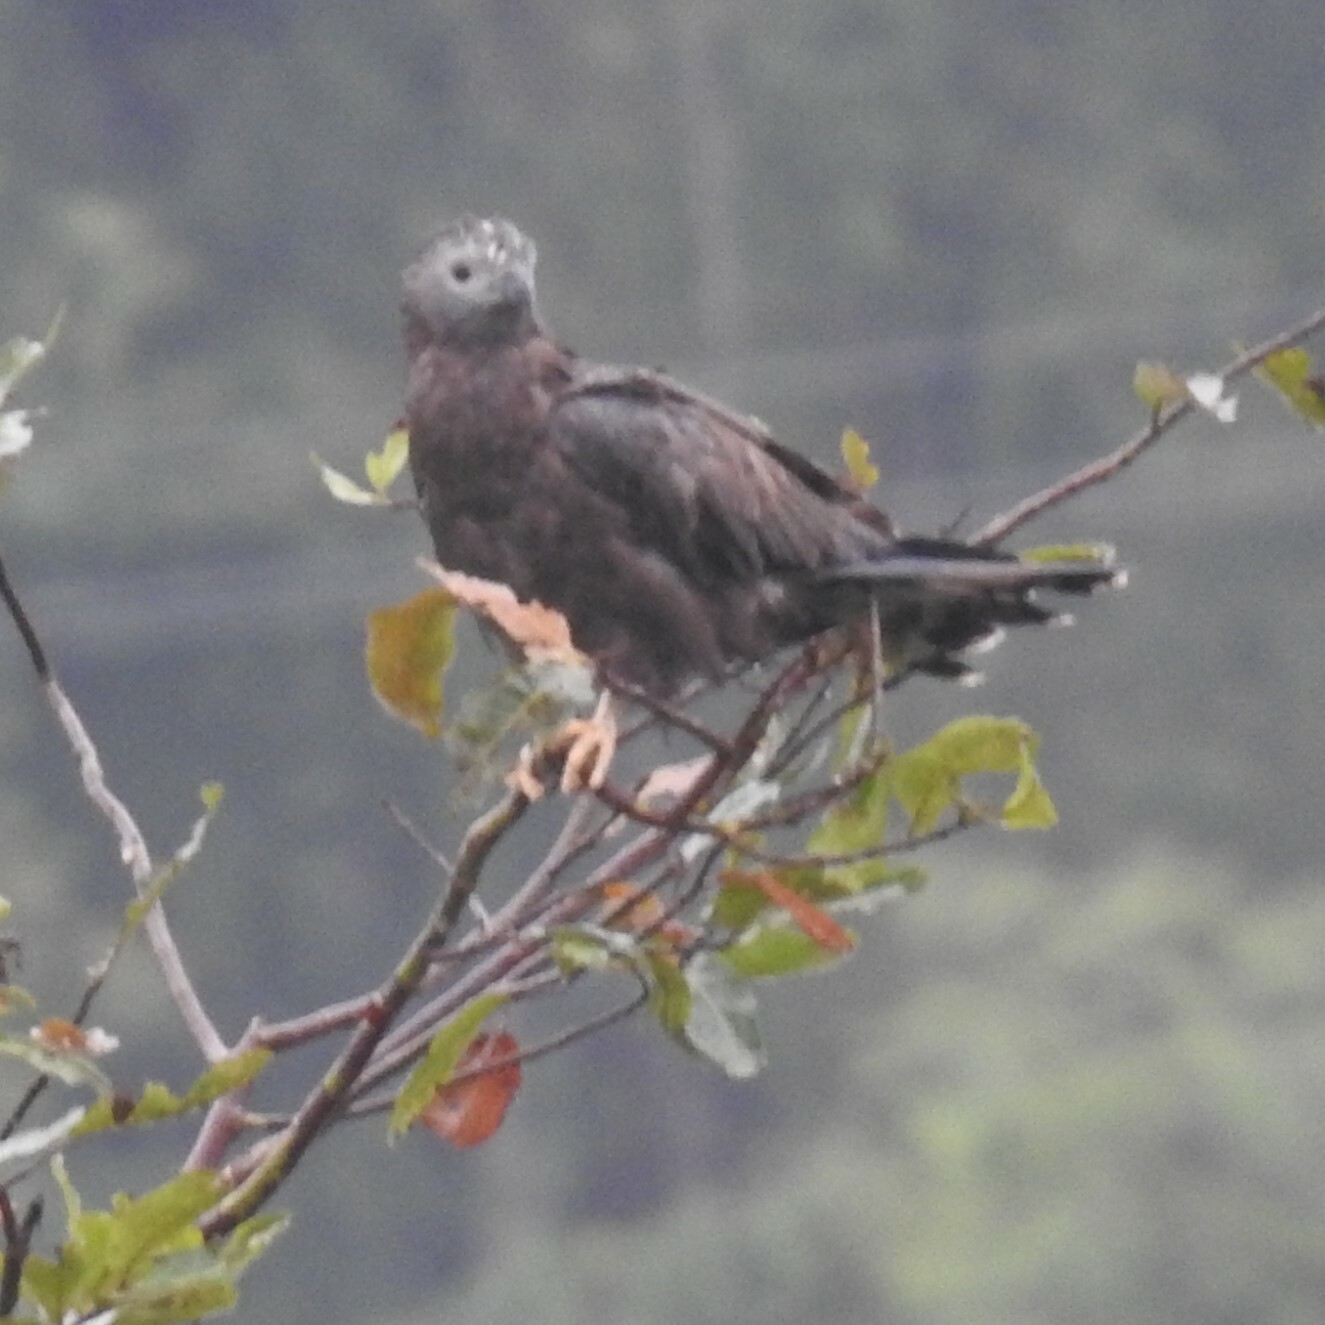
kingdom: Animalia
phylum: Chordata
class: Aves
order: Accipitriformes
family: Accipitridae
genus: Pernis
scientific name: Pernis ptilorhynchus
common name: Crested honey buzzard
